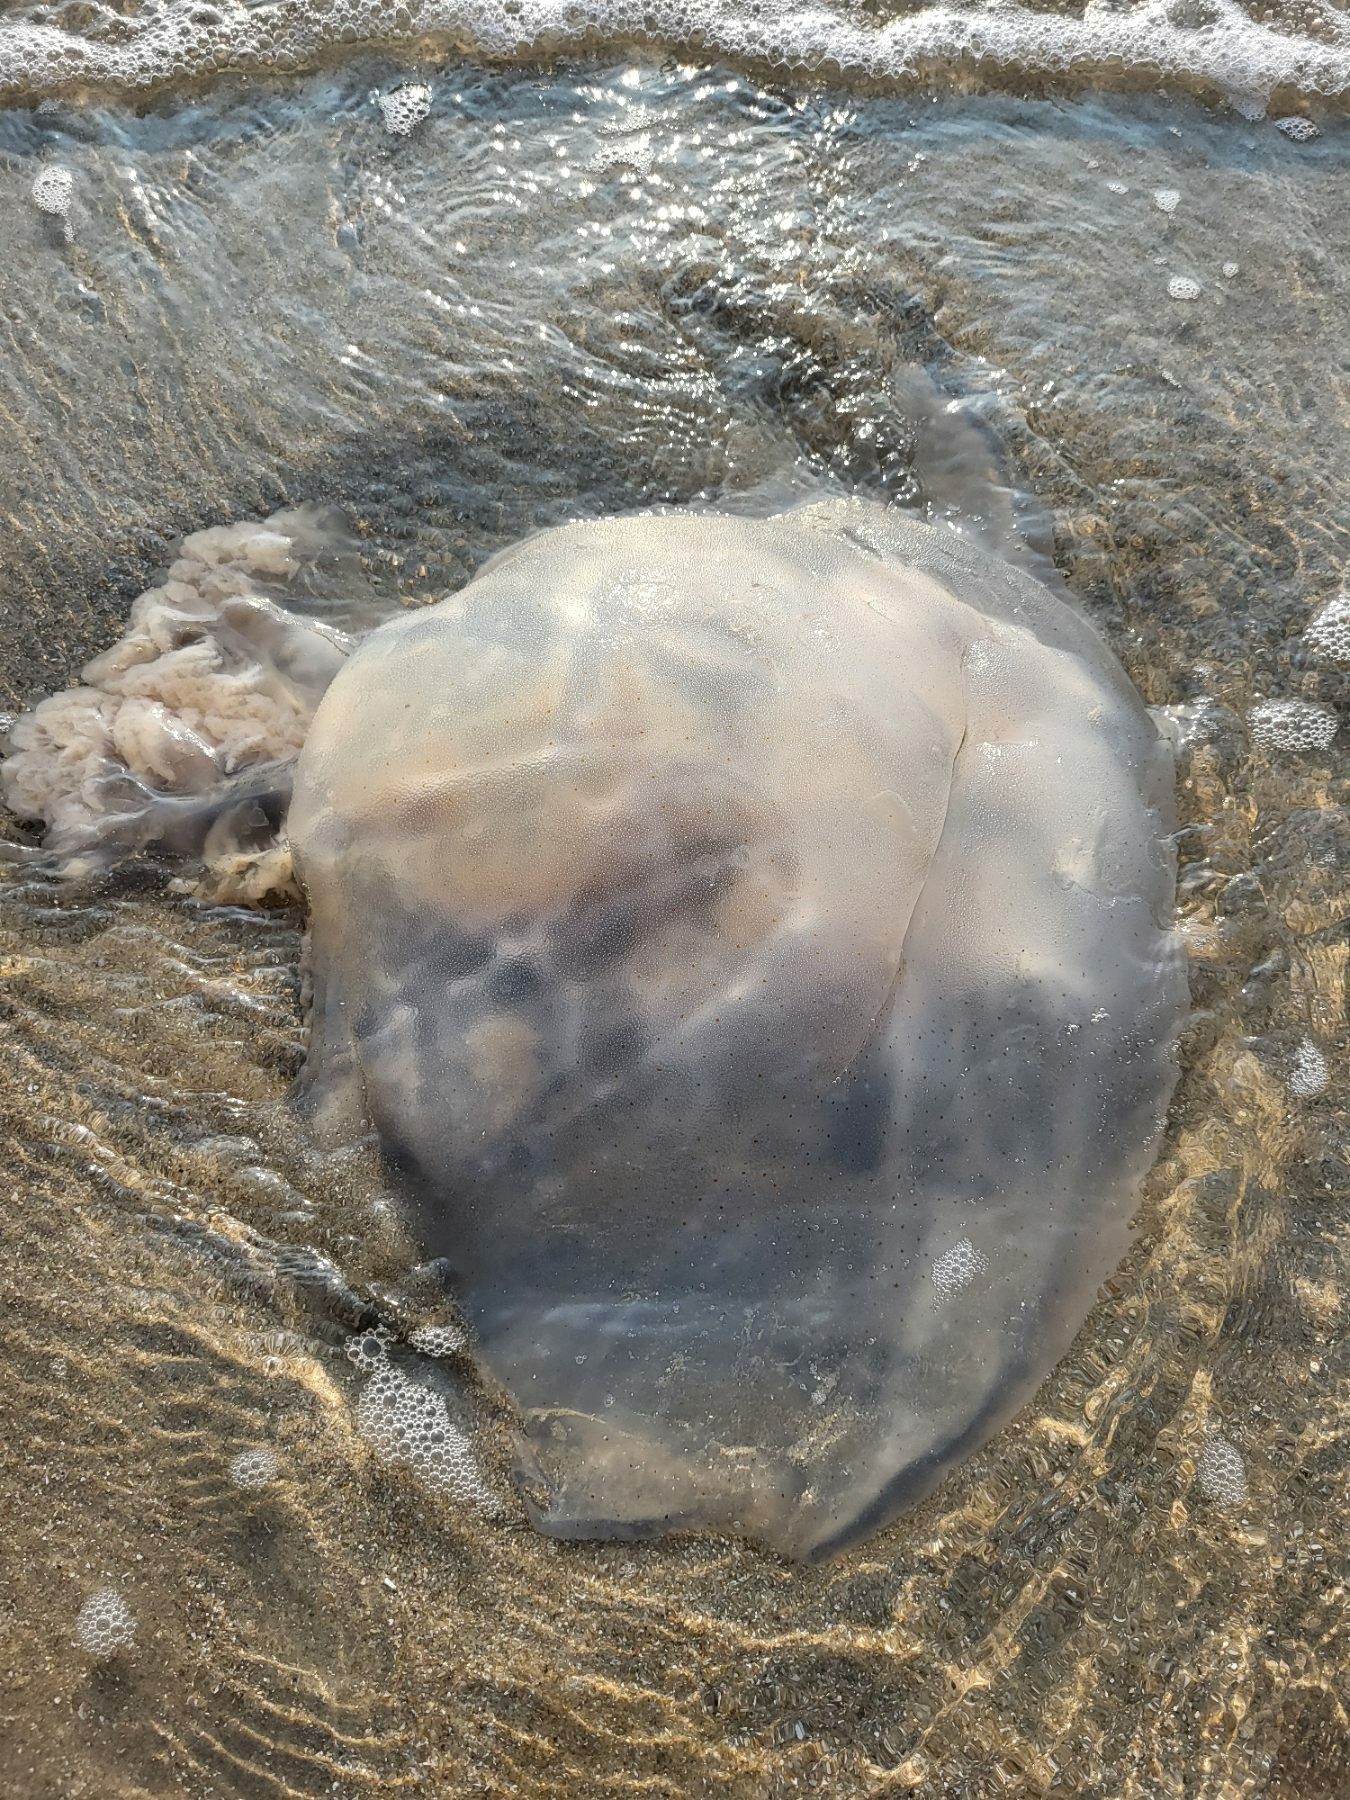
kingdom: Animalia
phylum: Cnidaria
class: Scyphozoa
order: Rhizostomeae
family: Rhizostomatidae
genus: Rhopilema
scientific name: Rhopilema hispidum
